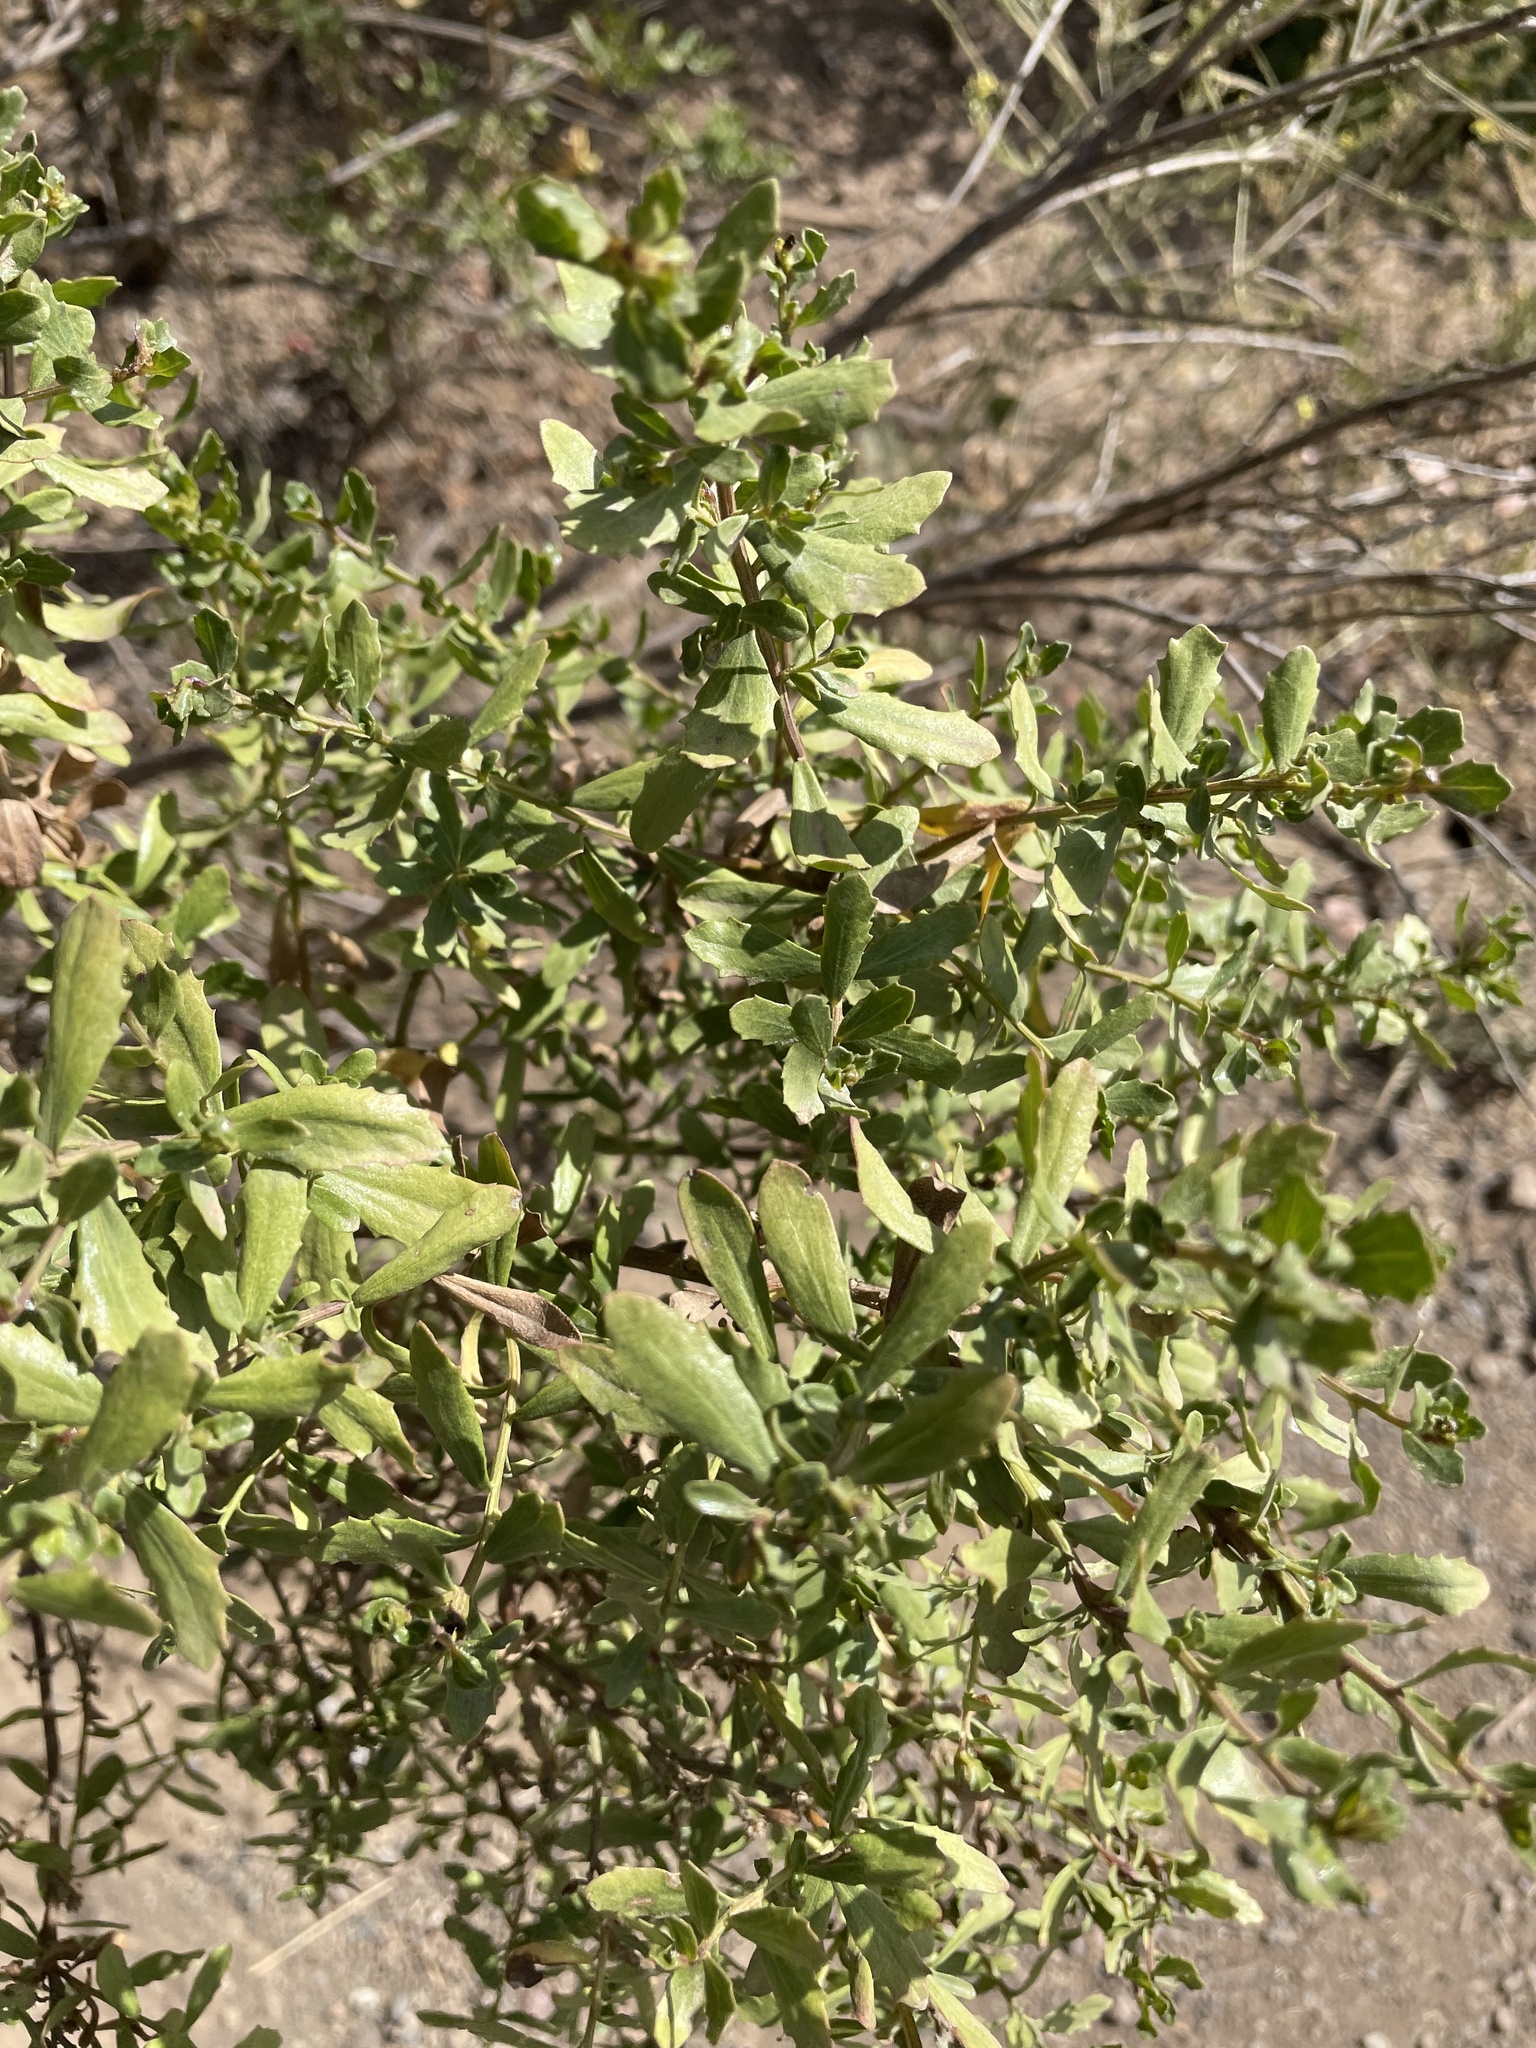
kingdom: Plantae
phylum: Tracheophyta
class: Magnoliopsida
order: Asterales
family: Asteraceae
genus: Baccharis
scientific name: Baccharis pilularis
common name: Coyotebrush
